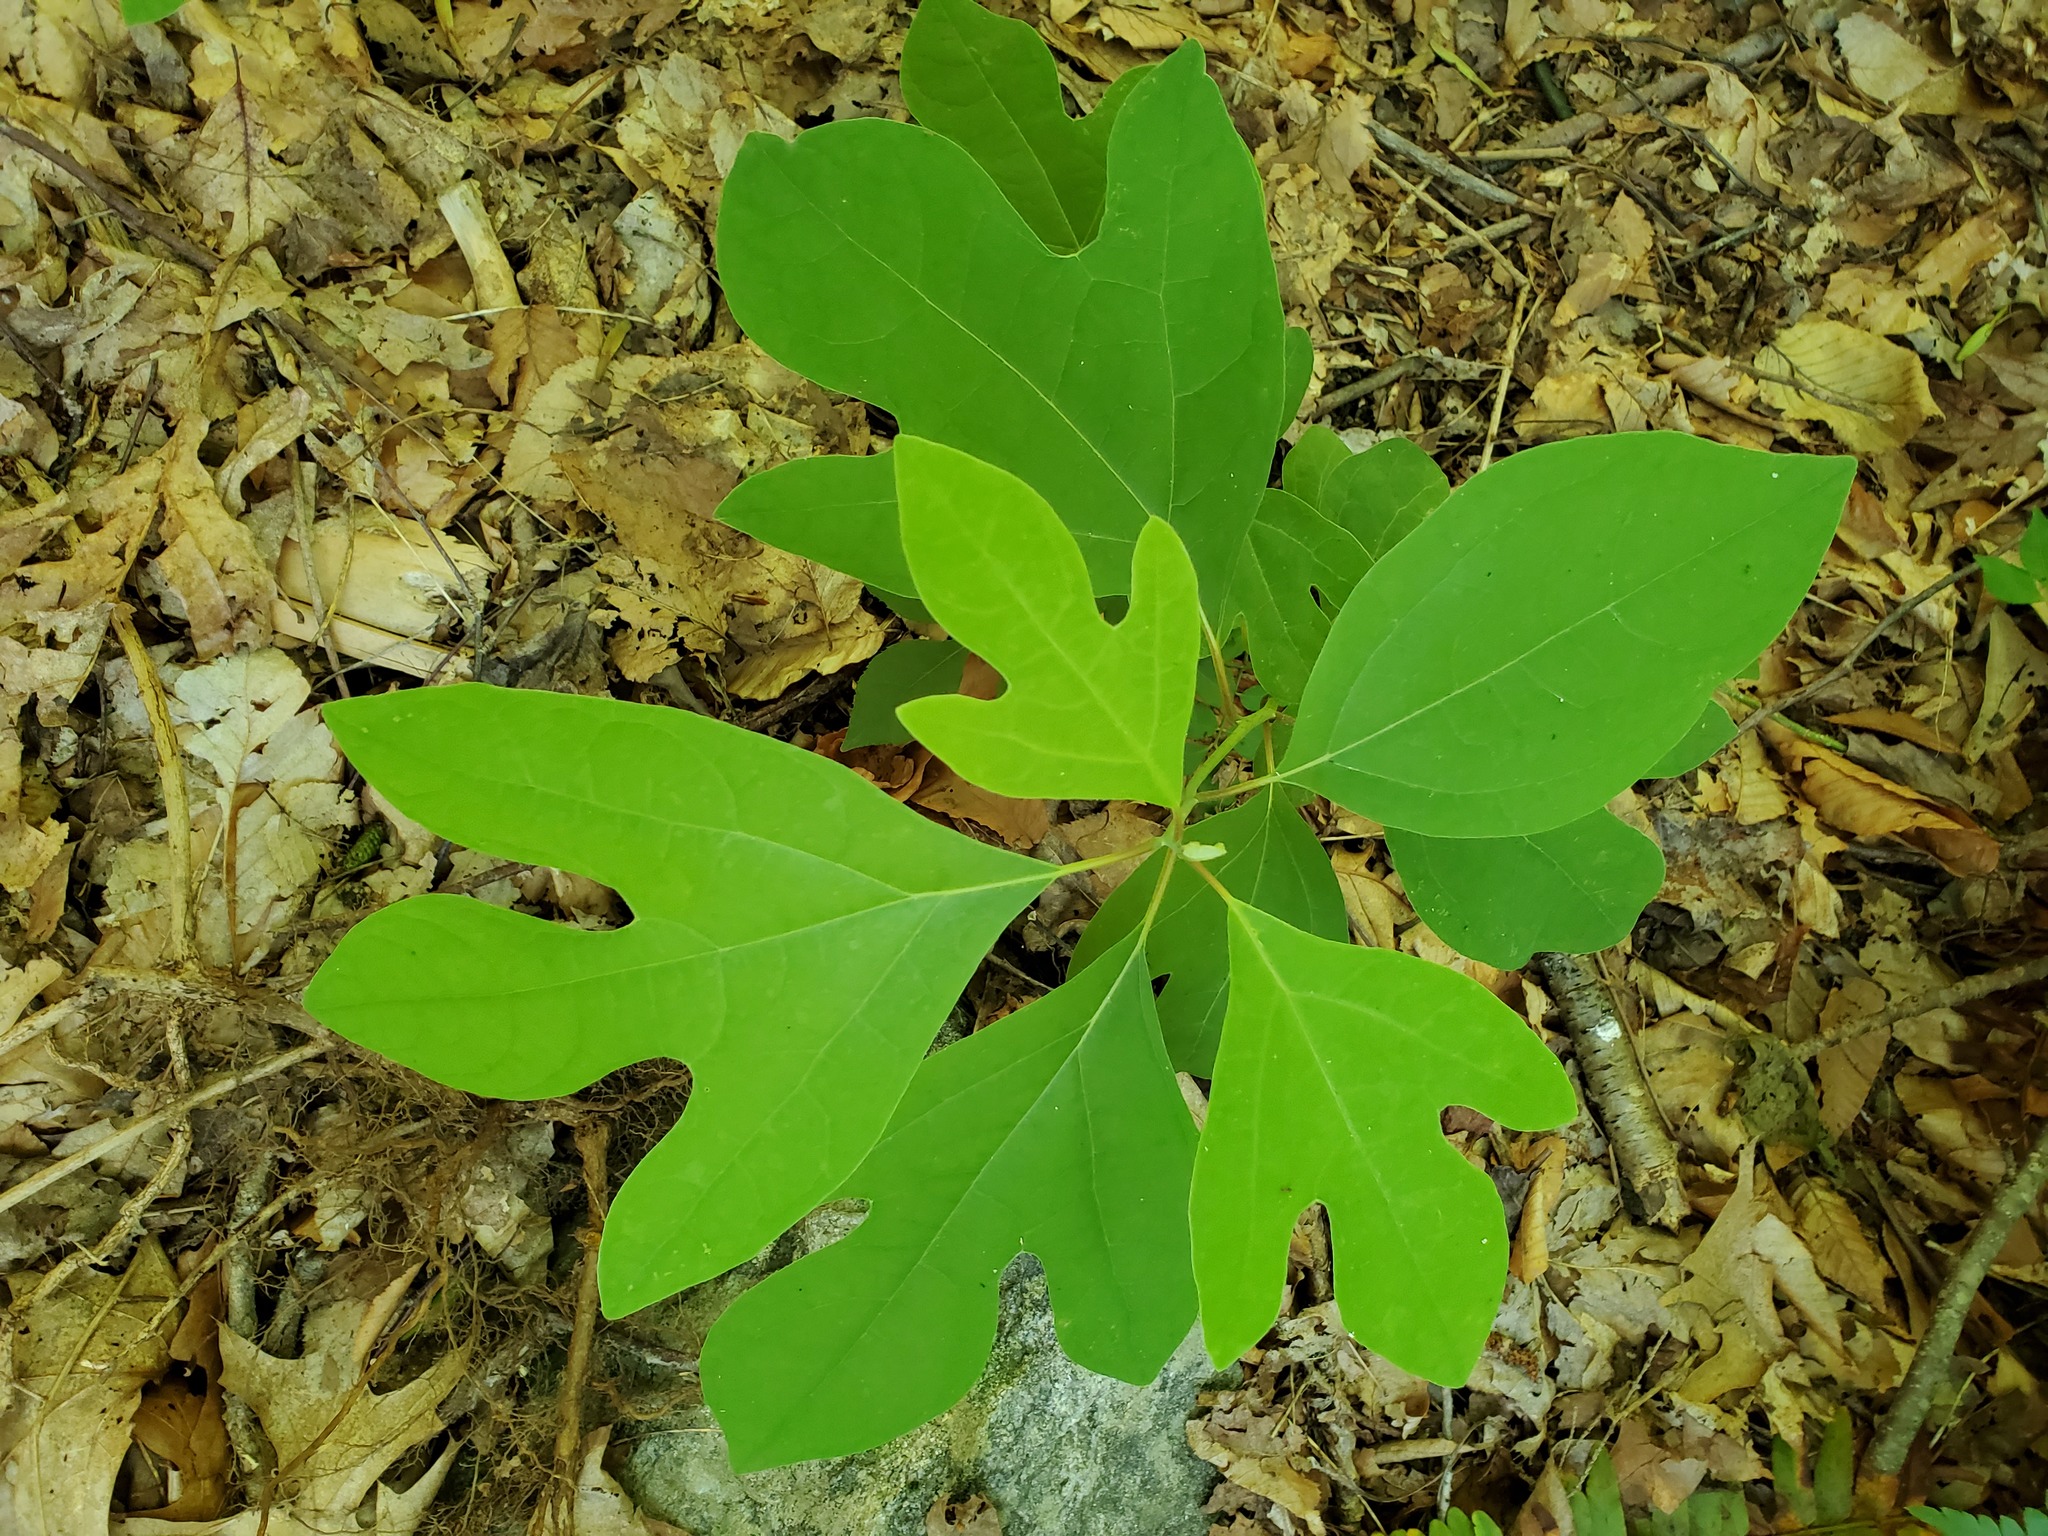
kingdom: Plantae
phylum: Tracheophyta
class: Magnoliopsida
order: Laurales
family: Lauraceae
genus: Sassafras
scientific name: Sassafras albidum
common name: Sassafras
